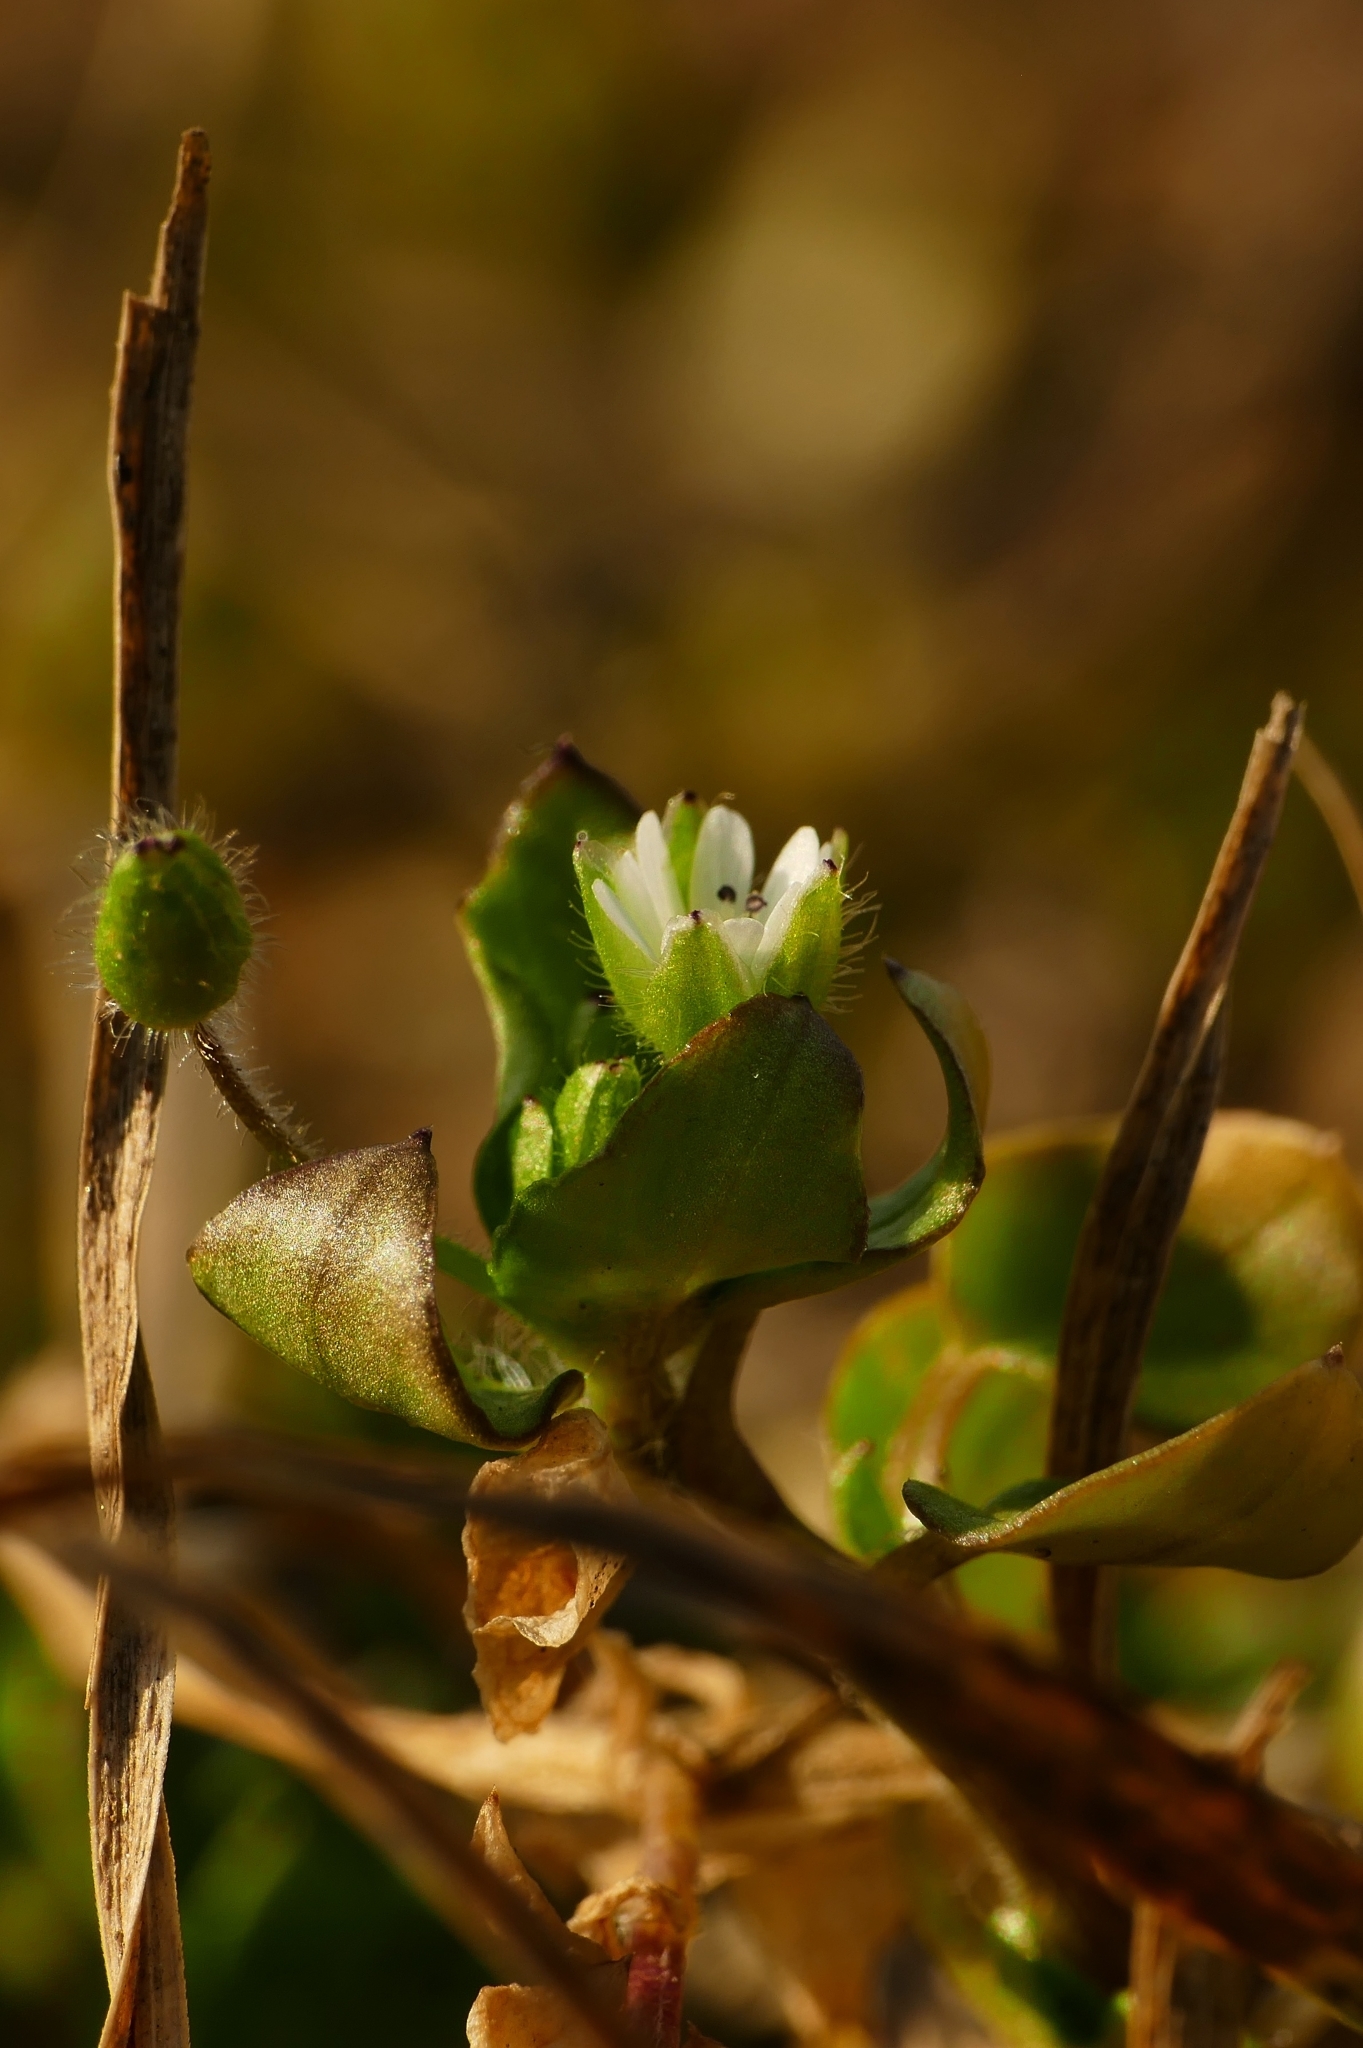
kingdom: Plantae
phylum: Tracheophyta
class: Magnoliopsida
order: Caryophyllales
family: Caryophyllaceae
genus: Stellaria
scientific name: Stellaria media
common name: Common chickweed
